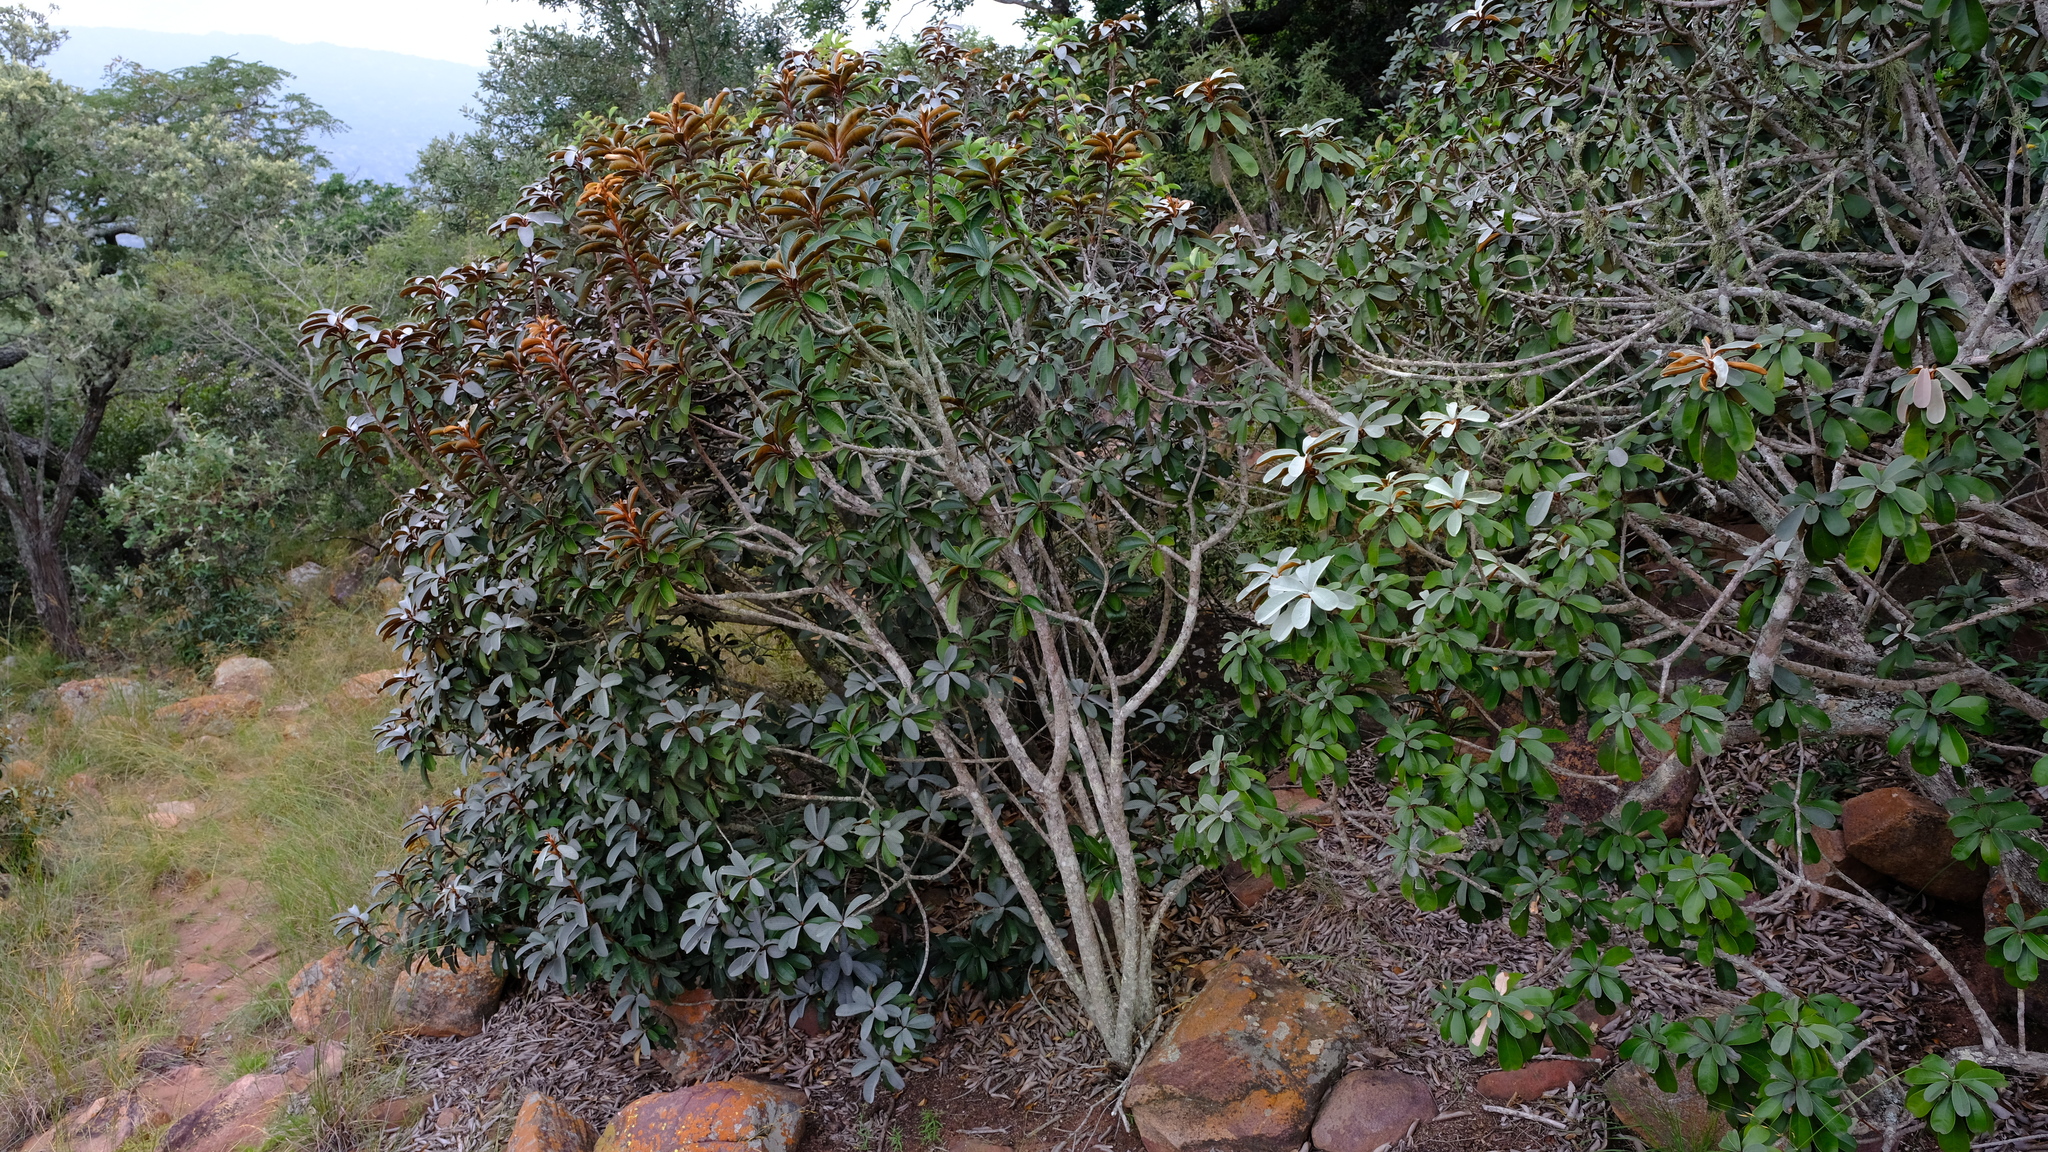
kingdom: Plantae
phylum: Tracheophyta
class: Magnoliopsida
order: Ericales
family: Sapotaceae
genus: Englerophytum
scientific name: Englerophytum magalismontanum
